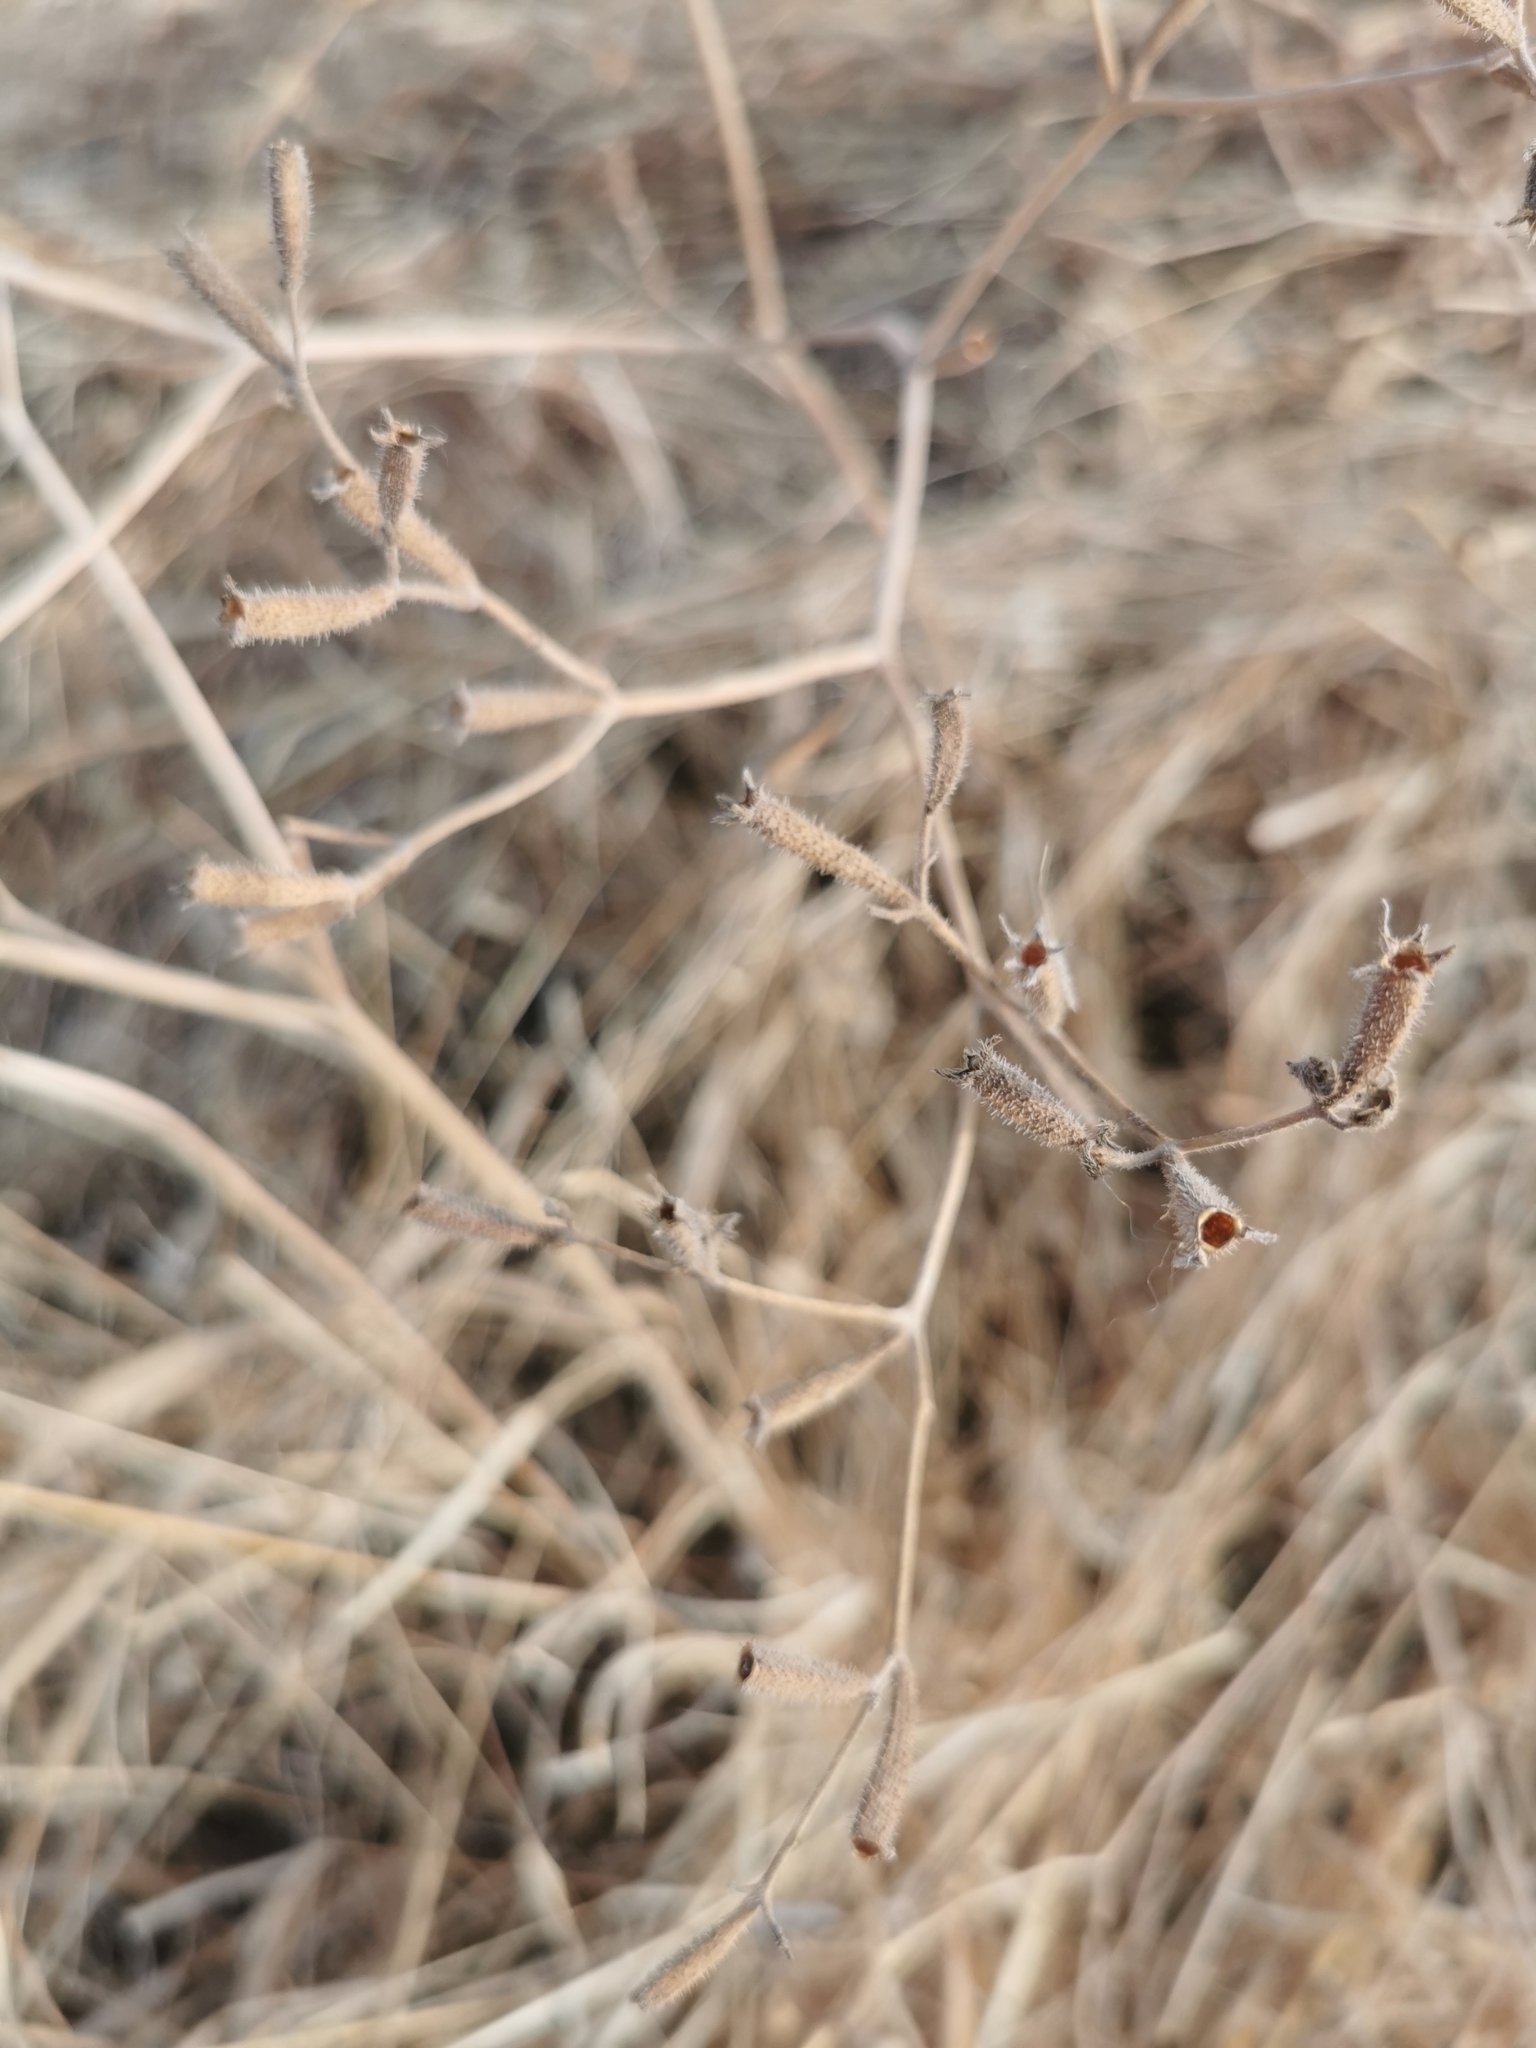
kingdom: Plantae
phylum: Tracheophyta
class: Magnoliopsida
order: Cornales
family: Loasaceae
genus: Mentzelia
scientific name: Mentzelia hispida
